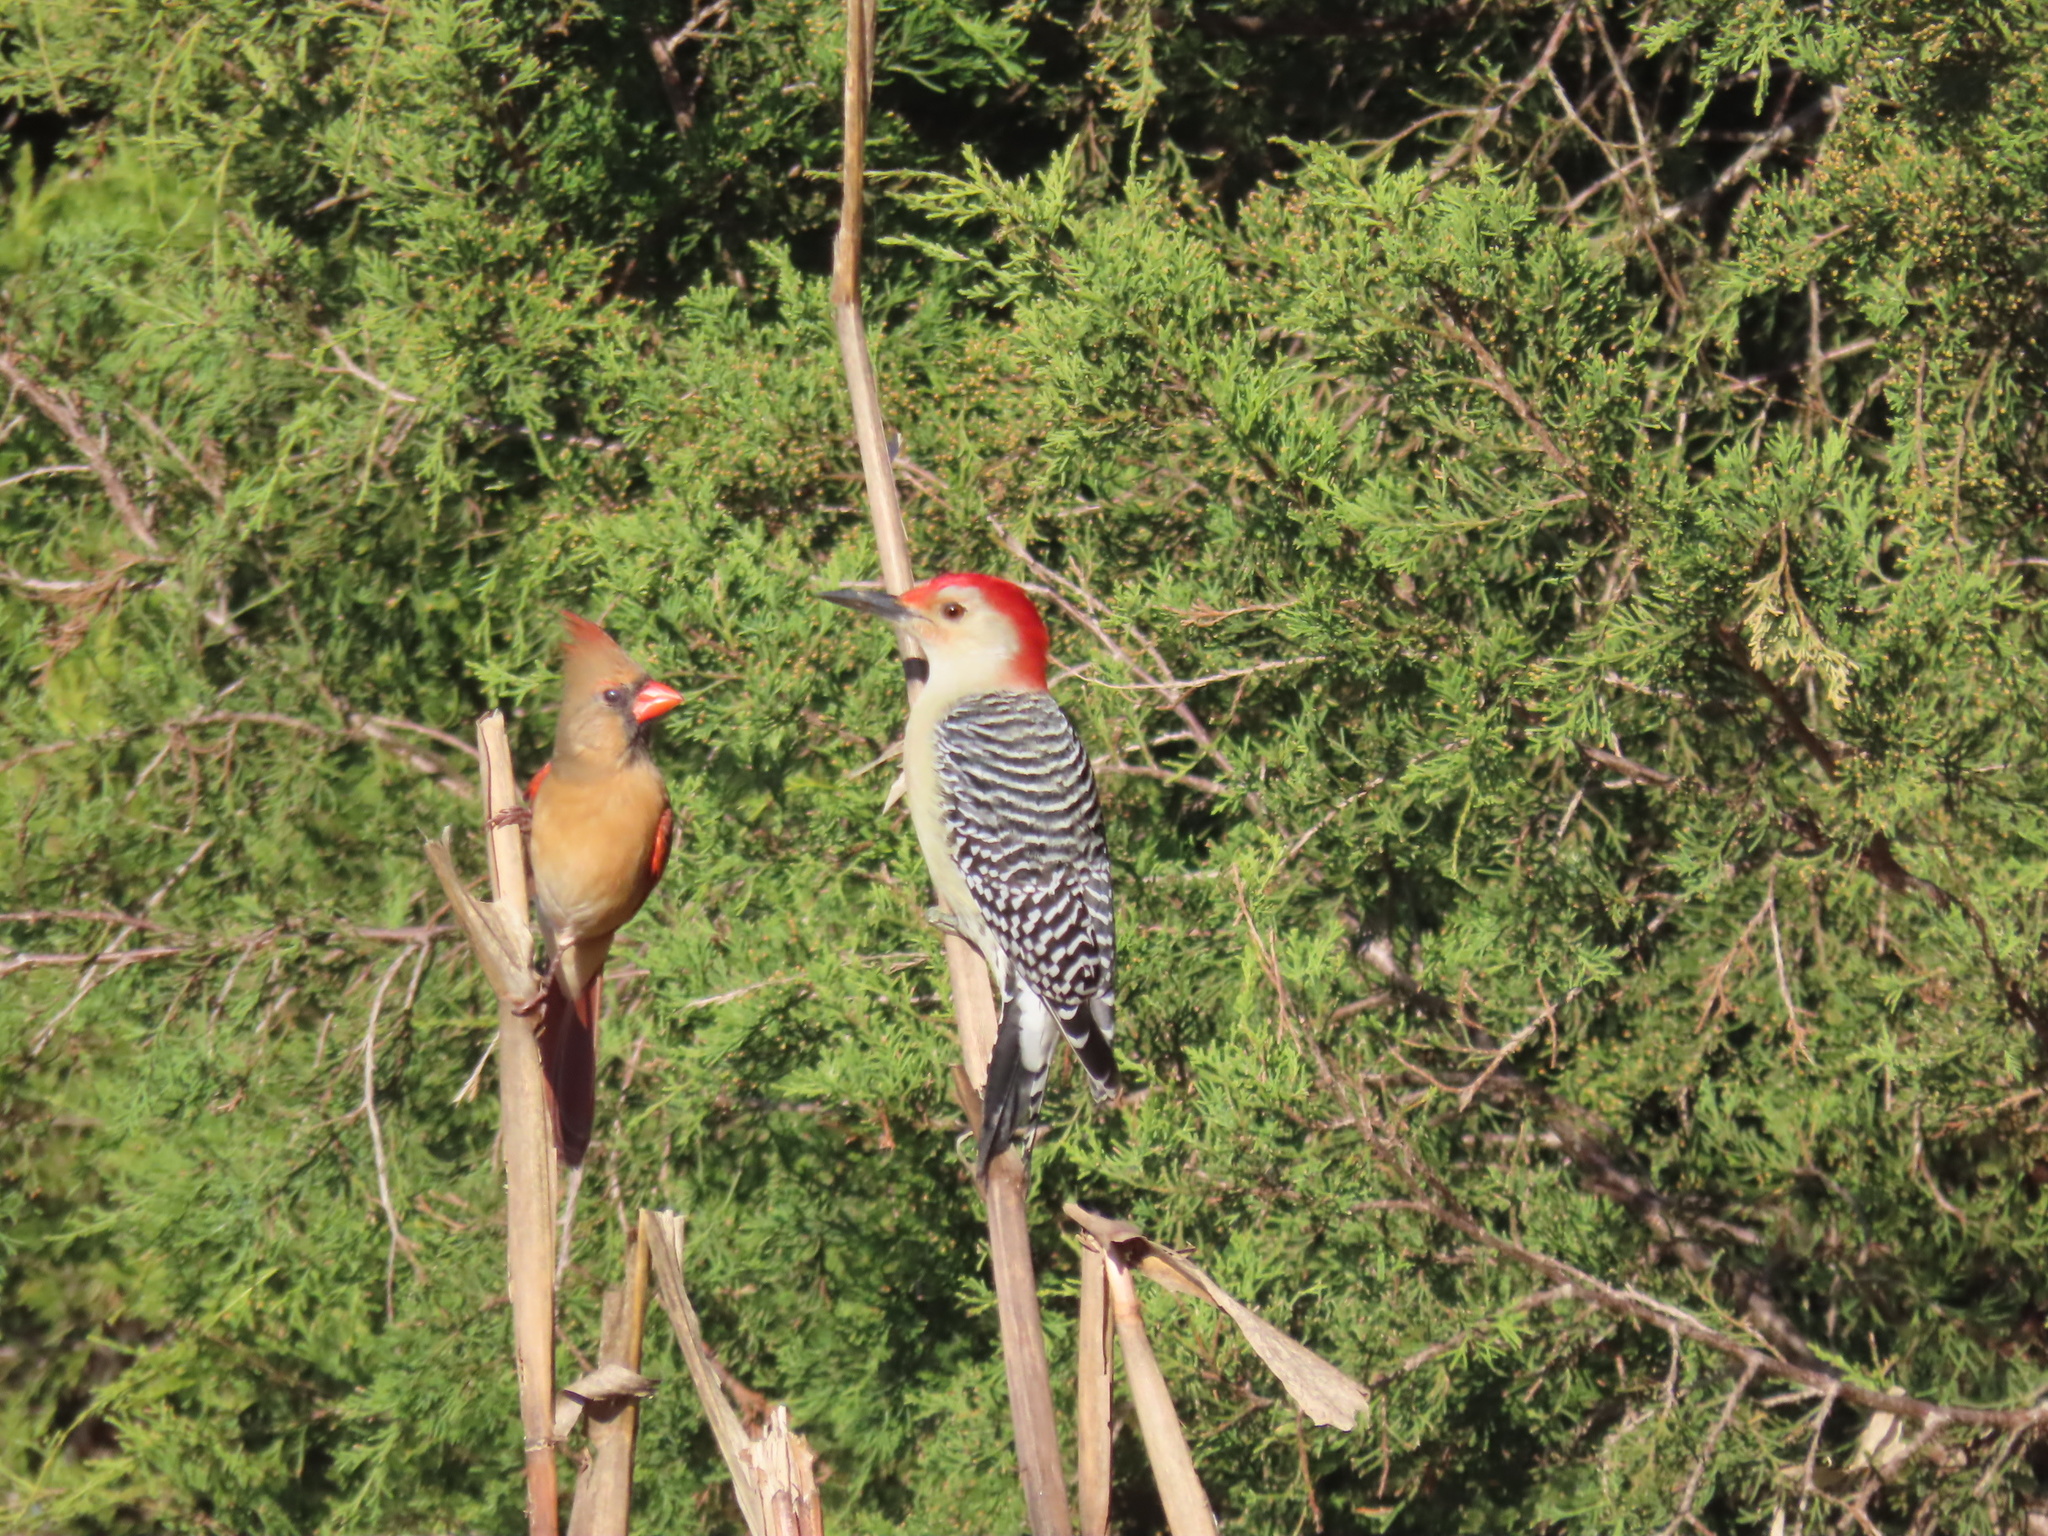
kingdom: Animalia
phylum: Chordata
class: Aves
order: Piciformes
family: Picidae
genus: Melanerpes
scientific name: Melanerpes carolinus
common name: Red-bellied woodpecker
